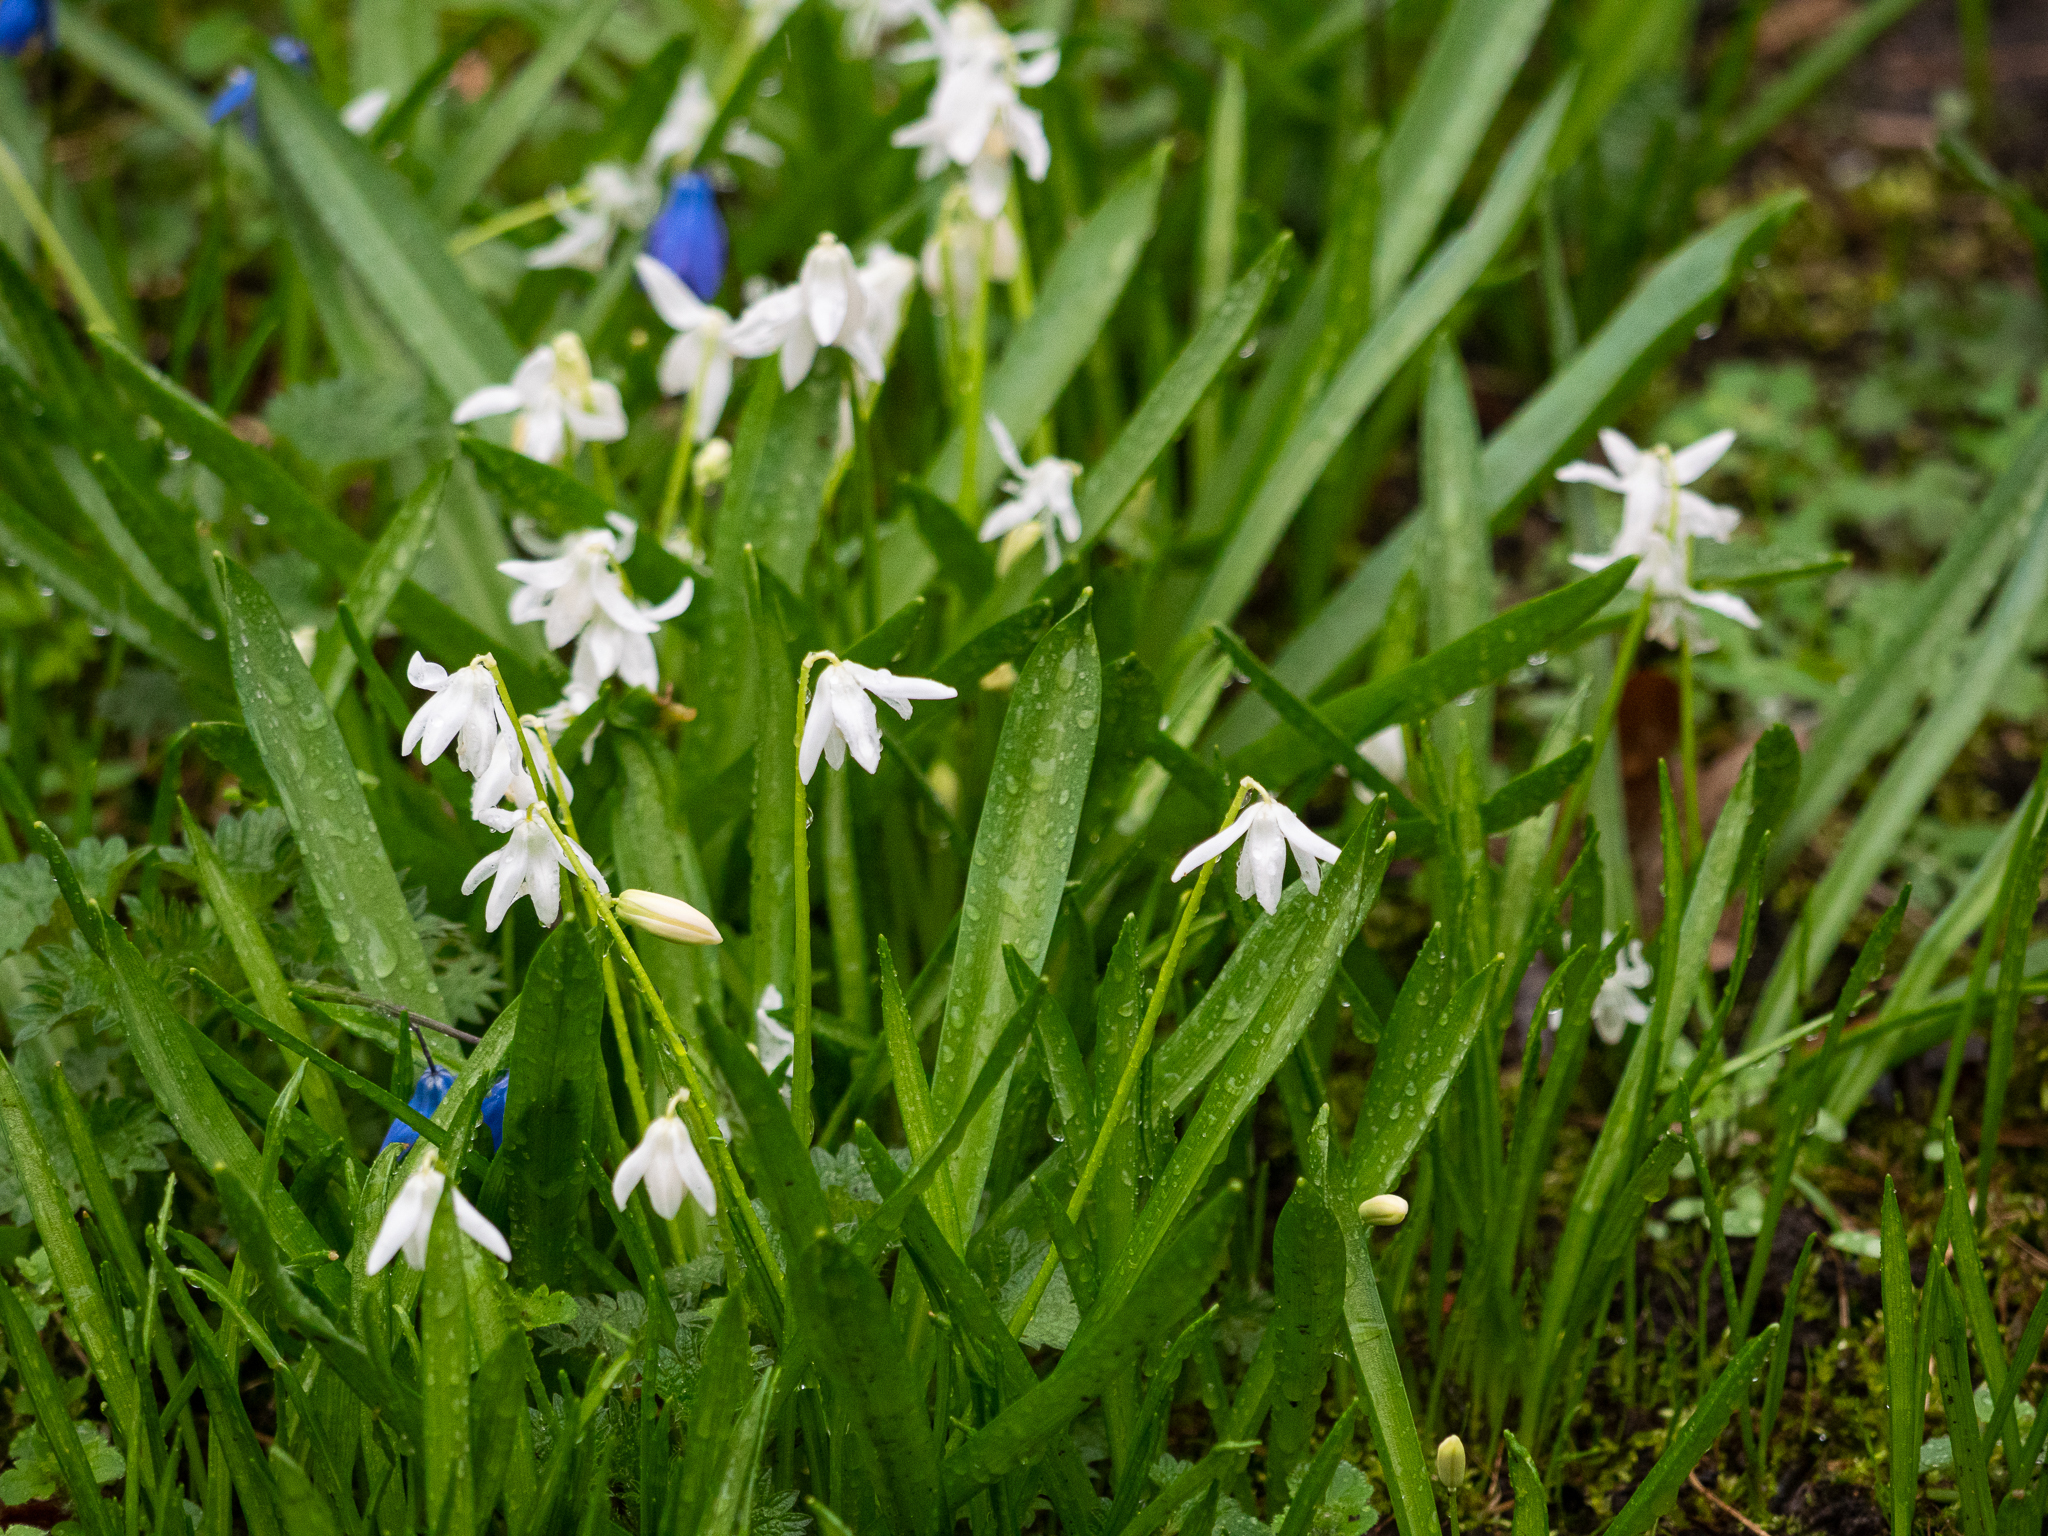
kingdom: Plantae
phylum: Tracheophyta
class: Liliopsida
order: Asparagales
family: Asparagaceae
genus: Scilla
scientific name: Scilla siberica
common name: Siberian squill
